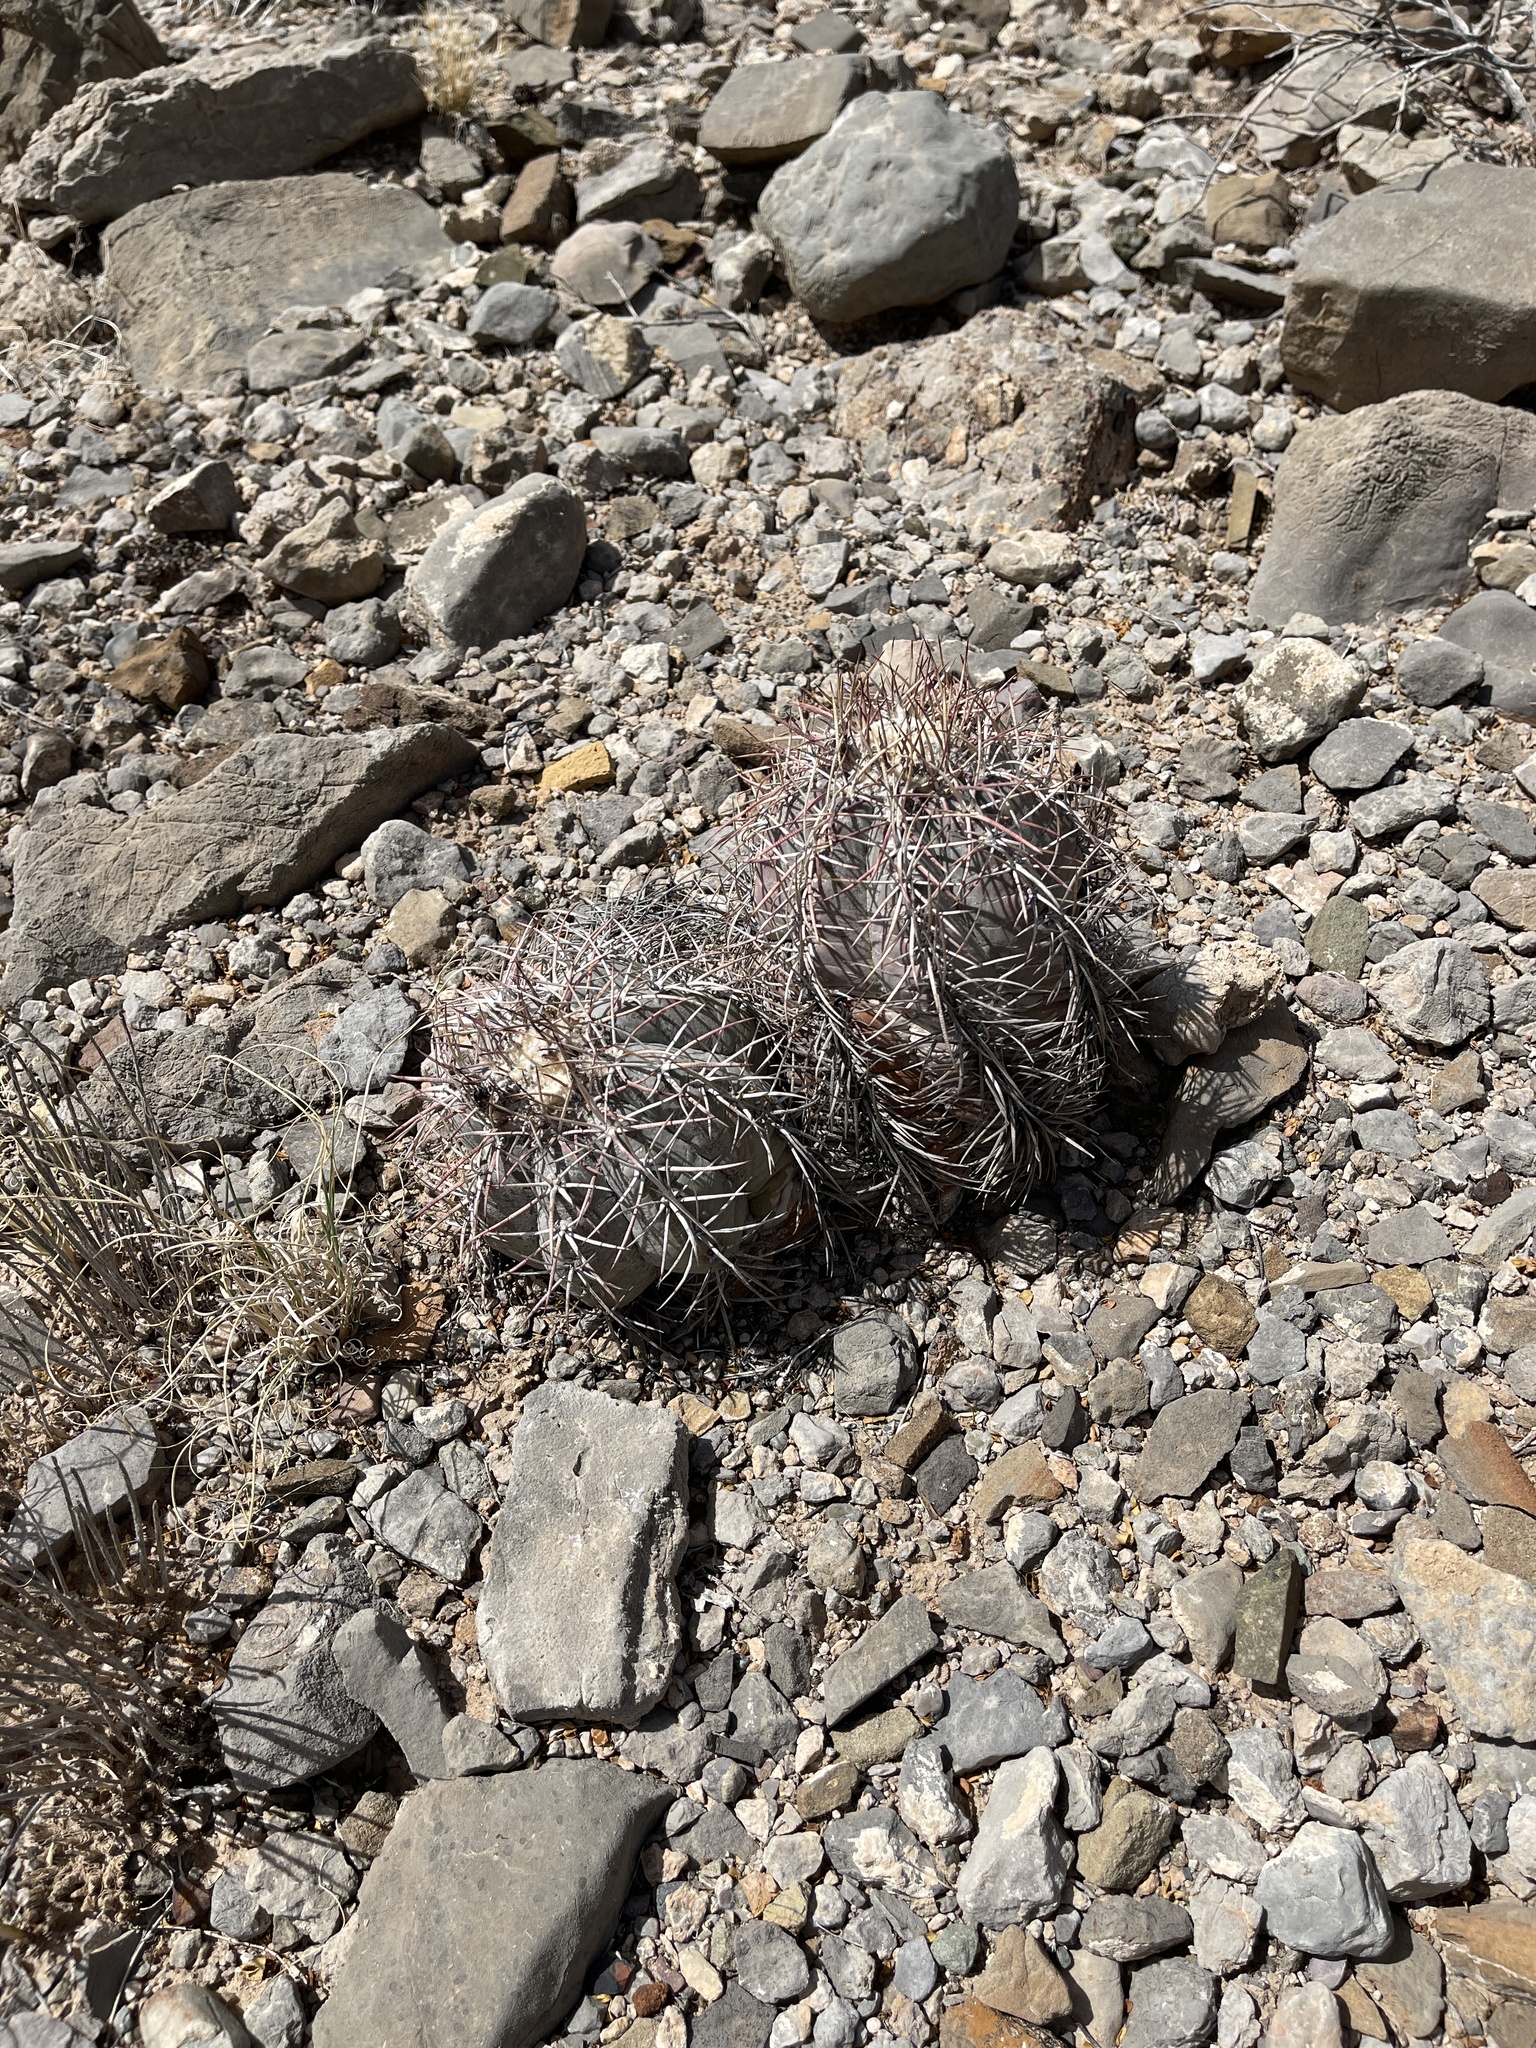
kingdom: Plantae
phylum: Tracheophyta
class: Magnoliopsida
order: Caryophyllales
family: Cactaceae
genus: Echinocactus
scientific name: Echinocactus horizonthalonius
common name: Devilshead
